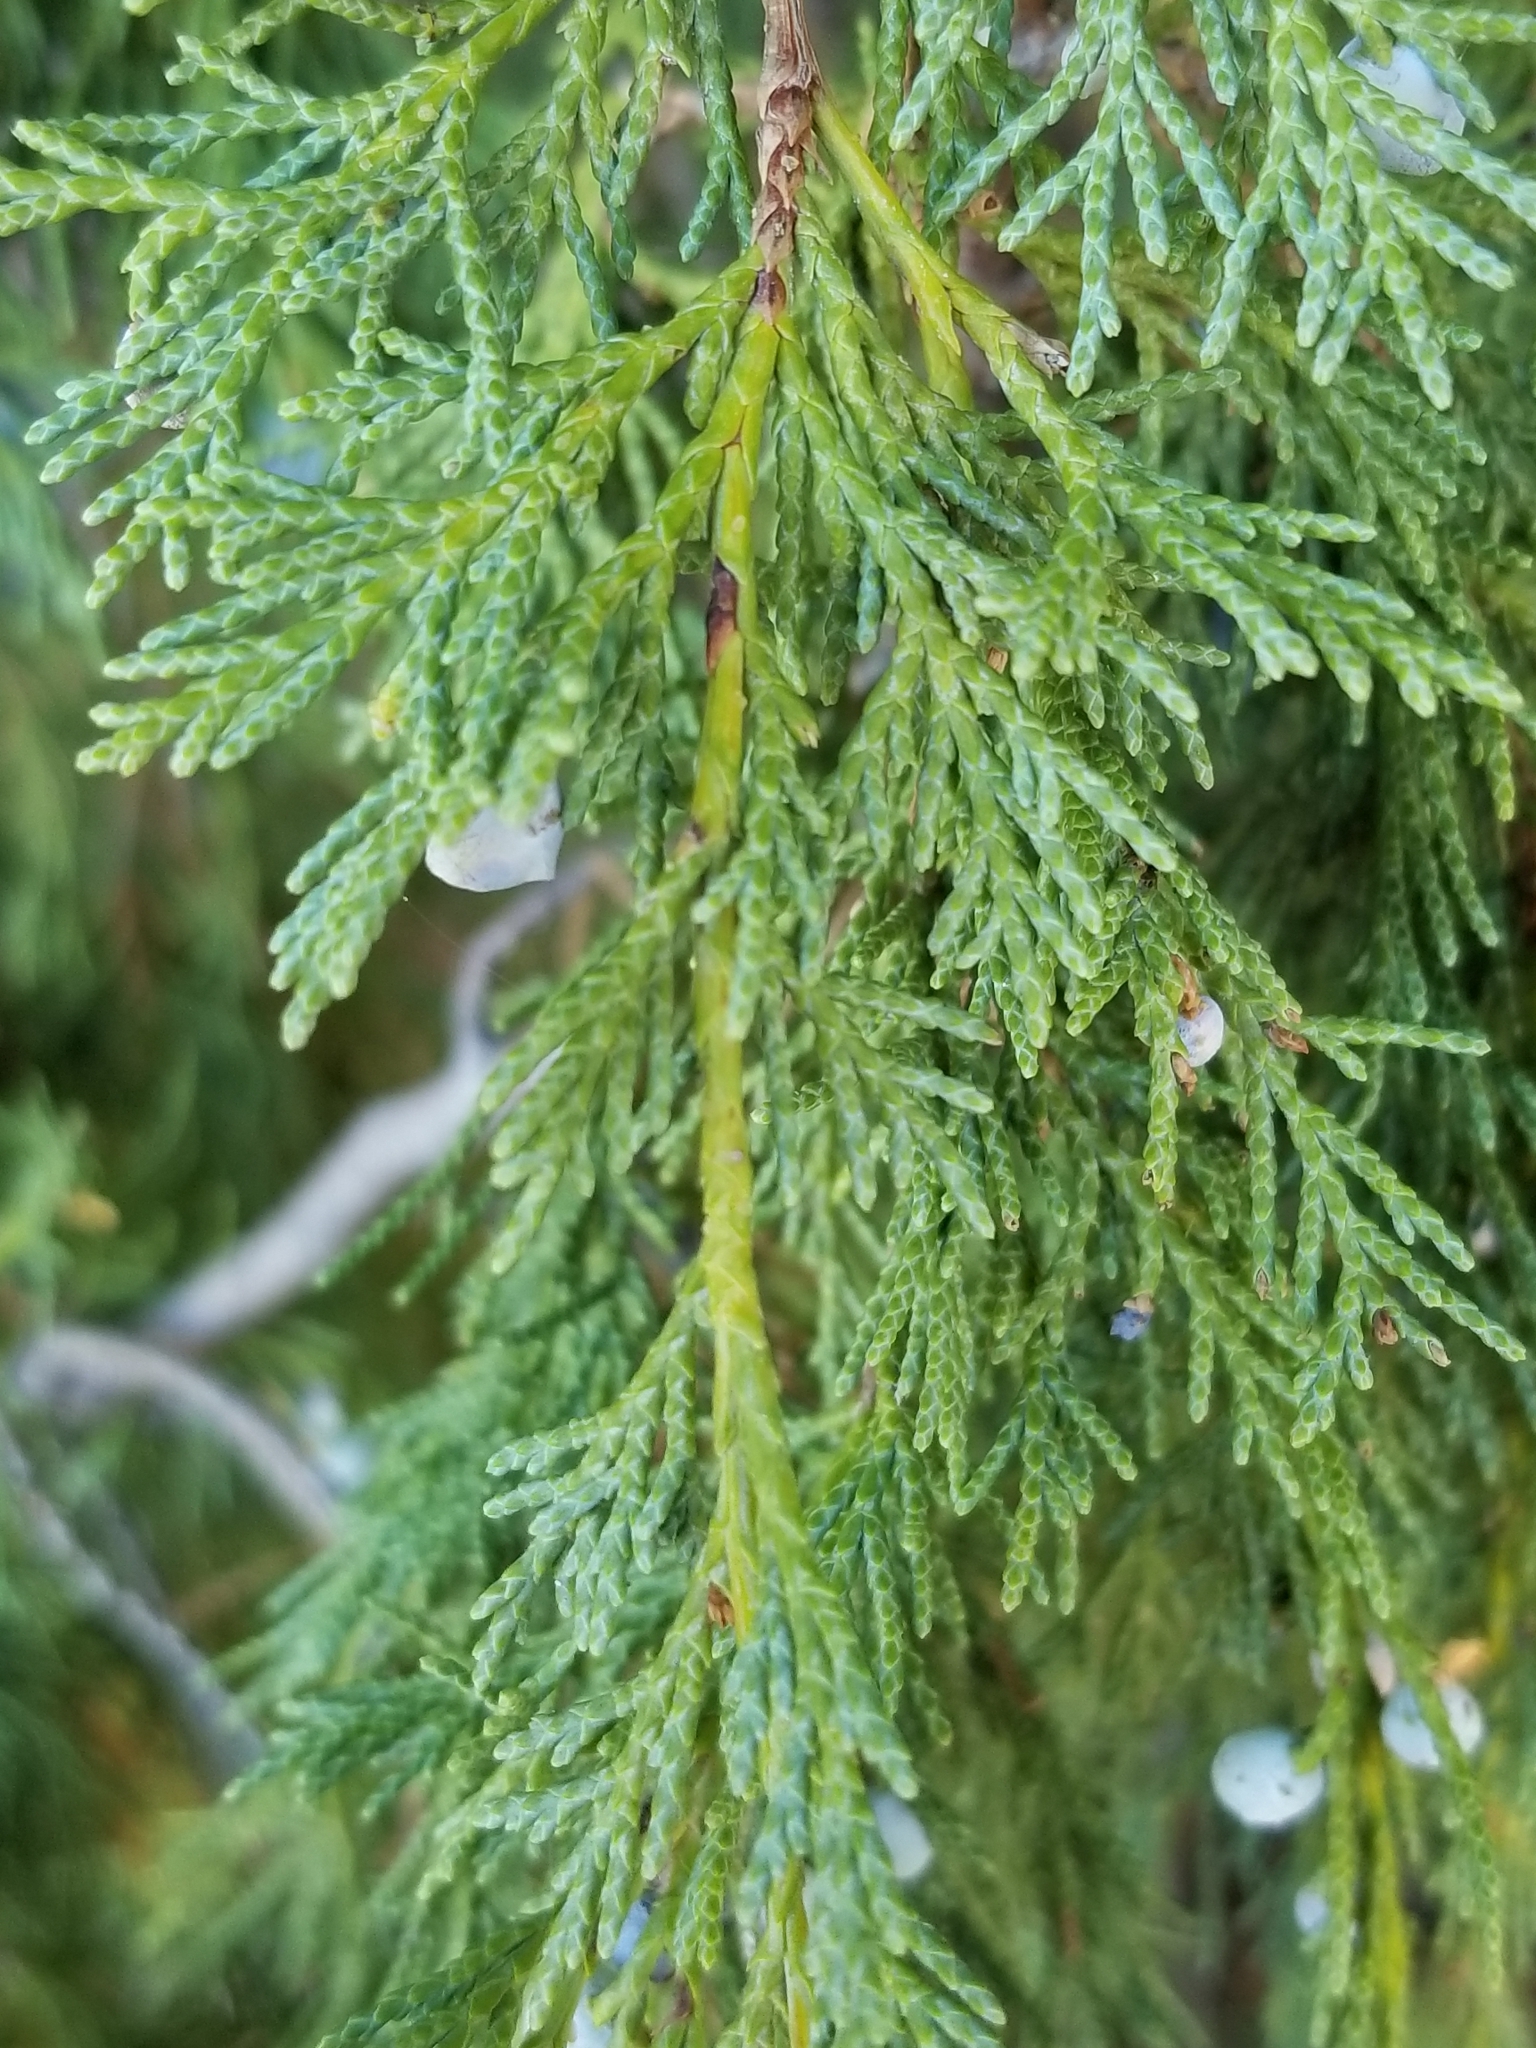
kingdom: Plantae
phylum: Tracheophyta
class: Pinopsida
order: Pinales
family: Cupressaceae
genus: Juniperus
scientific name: Juniperus osteosperma
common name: Utah juniper
